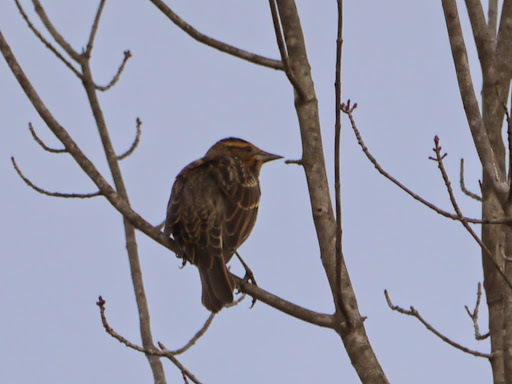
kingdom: Animalia
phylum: Chordata
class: Aves
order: Passeriformes
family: Icteridae
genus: Agelaius
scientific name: Agelaius phoeniceus
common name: Red-winged blackbird
